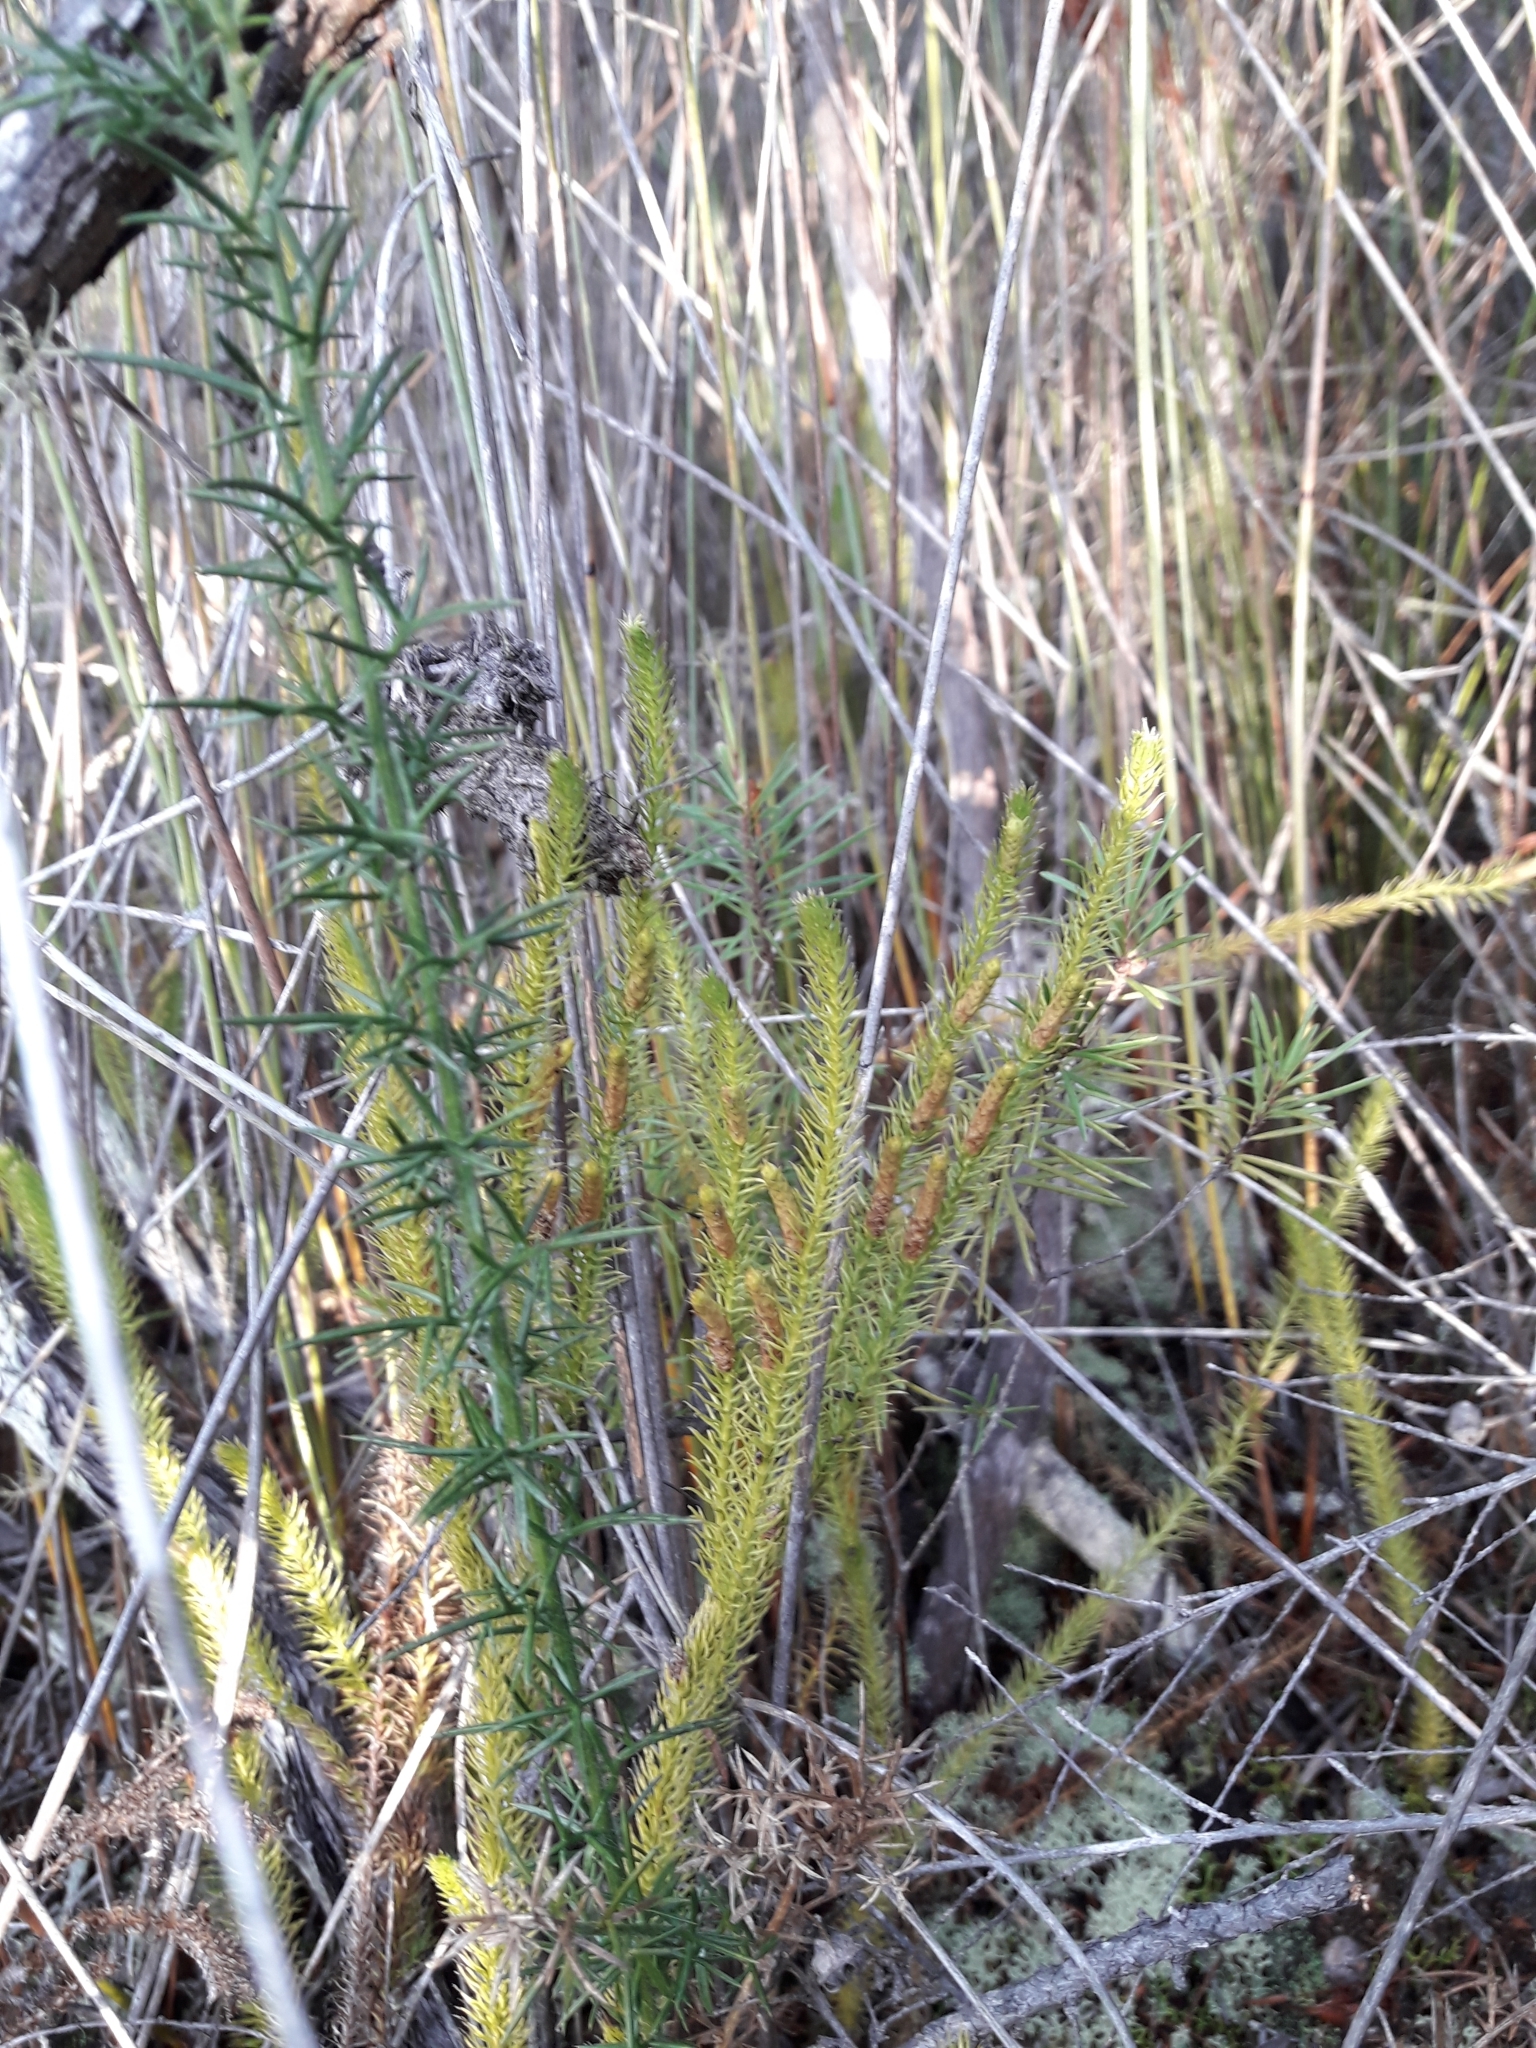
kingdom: Plantae
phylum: Tracheophyta
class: Lycopodiopsida
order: Lycopodiales
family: Lycopodiaceae
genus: Lateristachys
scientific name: Lateristachys lateralis
